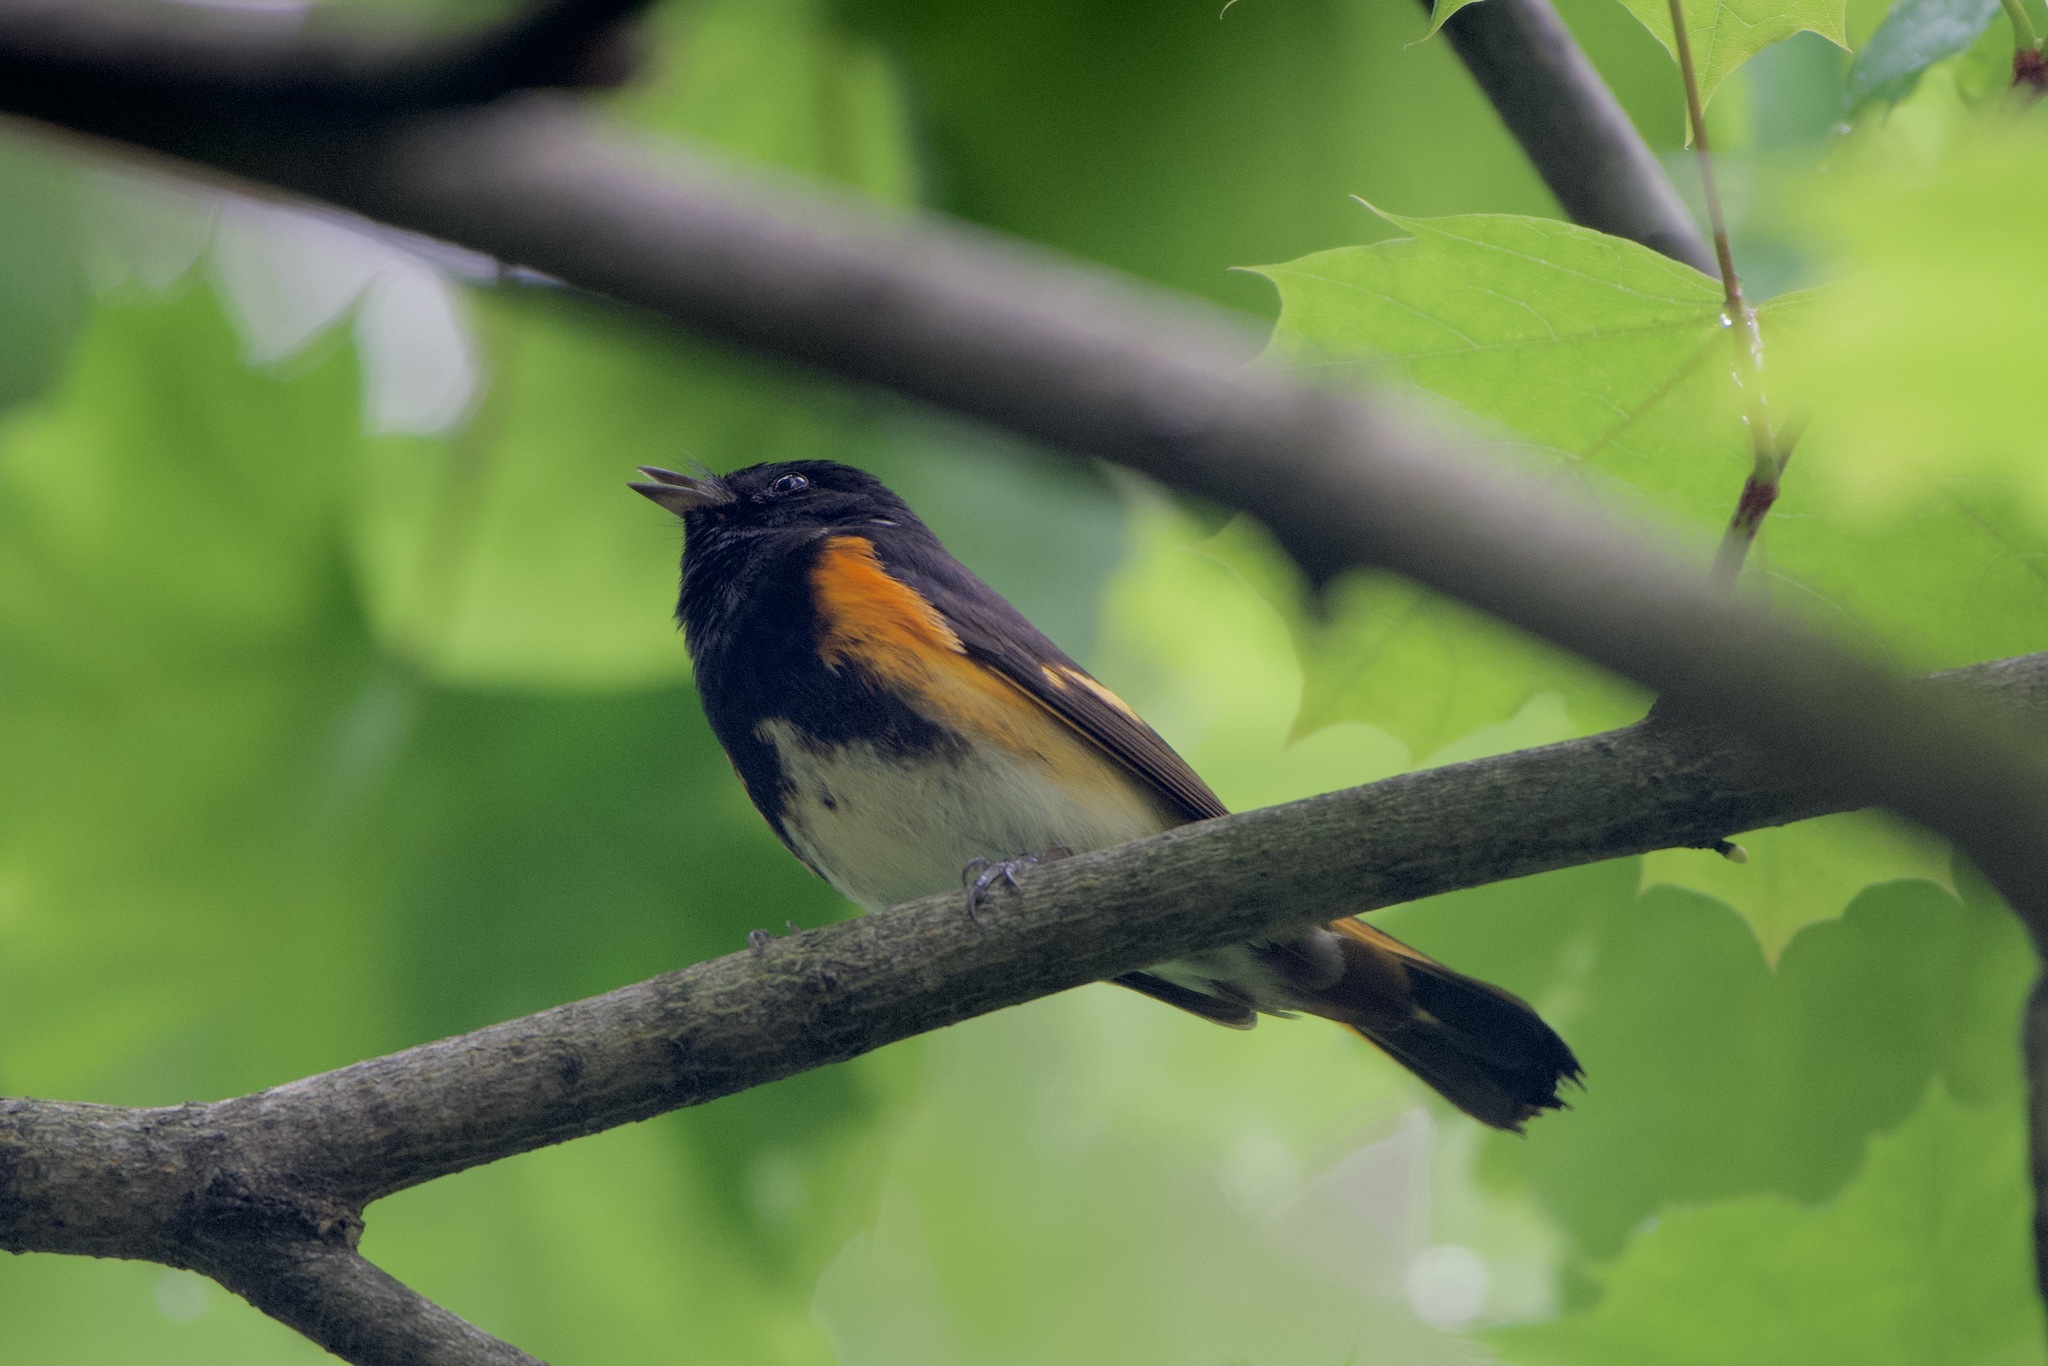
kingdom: Animalia
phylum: Chordata
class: Aves
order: Passeriformes
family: Parulidae
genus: Setophaga
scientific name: Setophaga ruticilla
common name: American redstart
